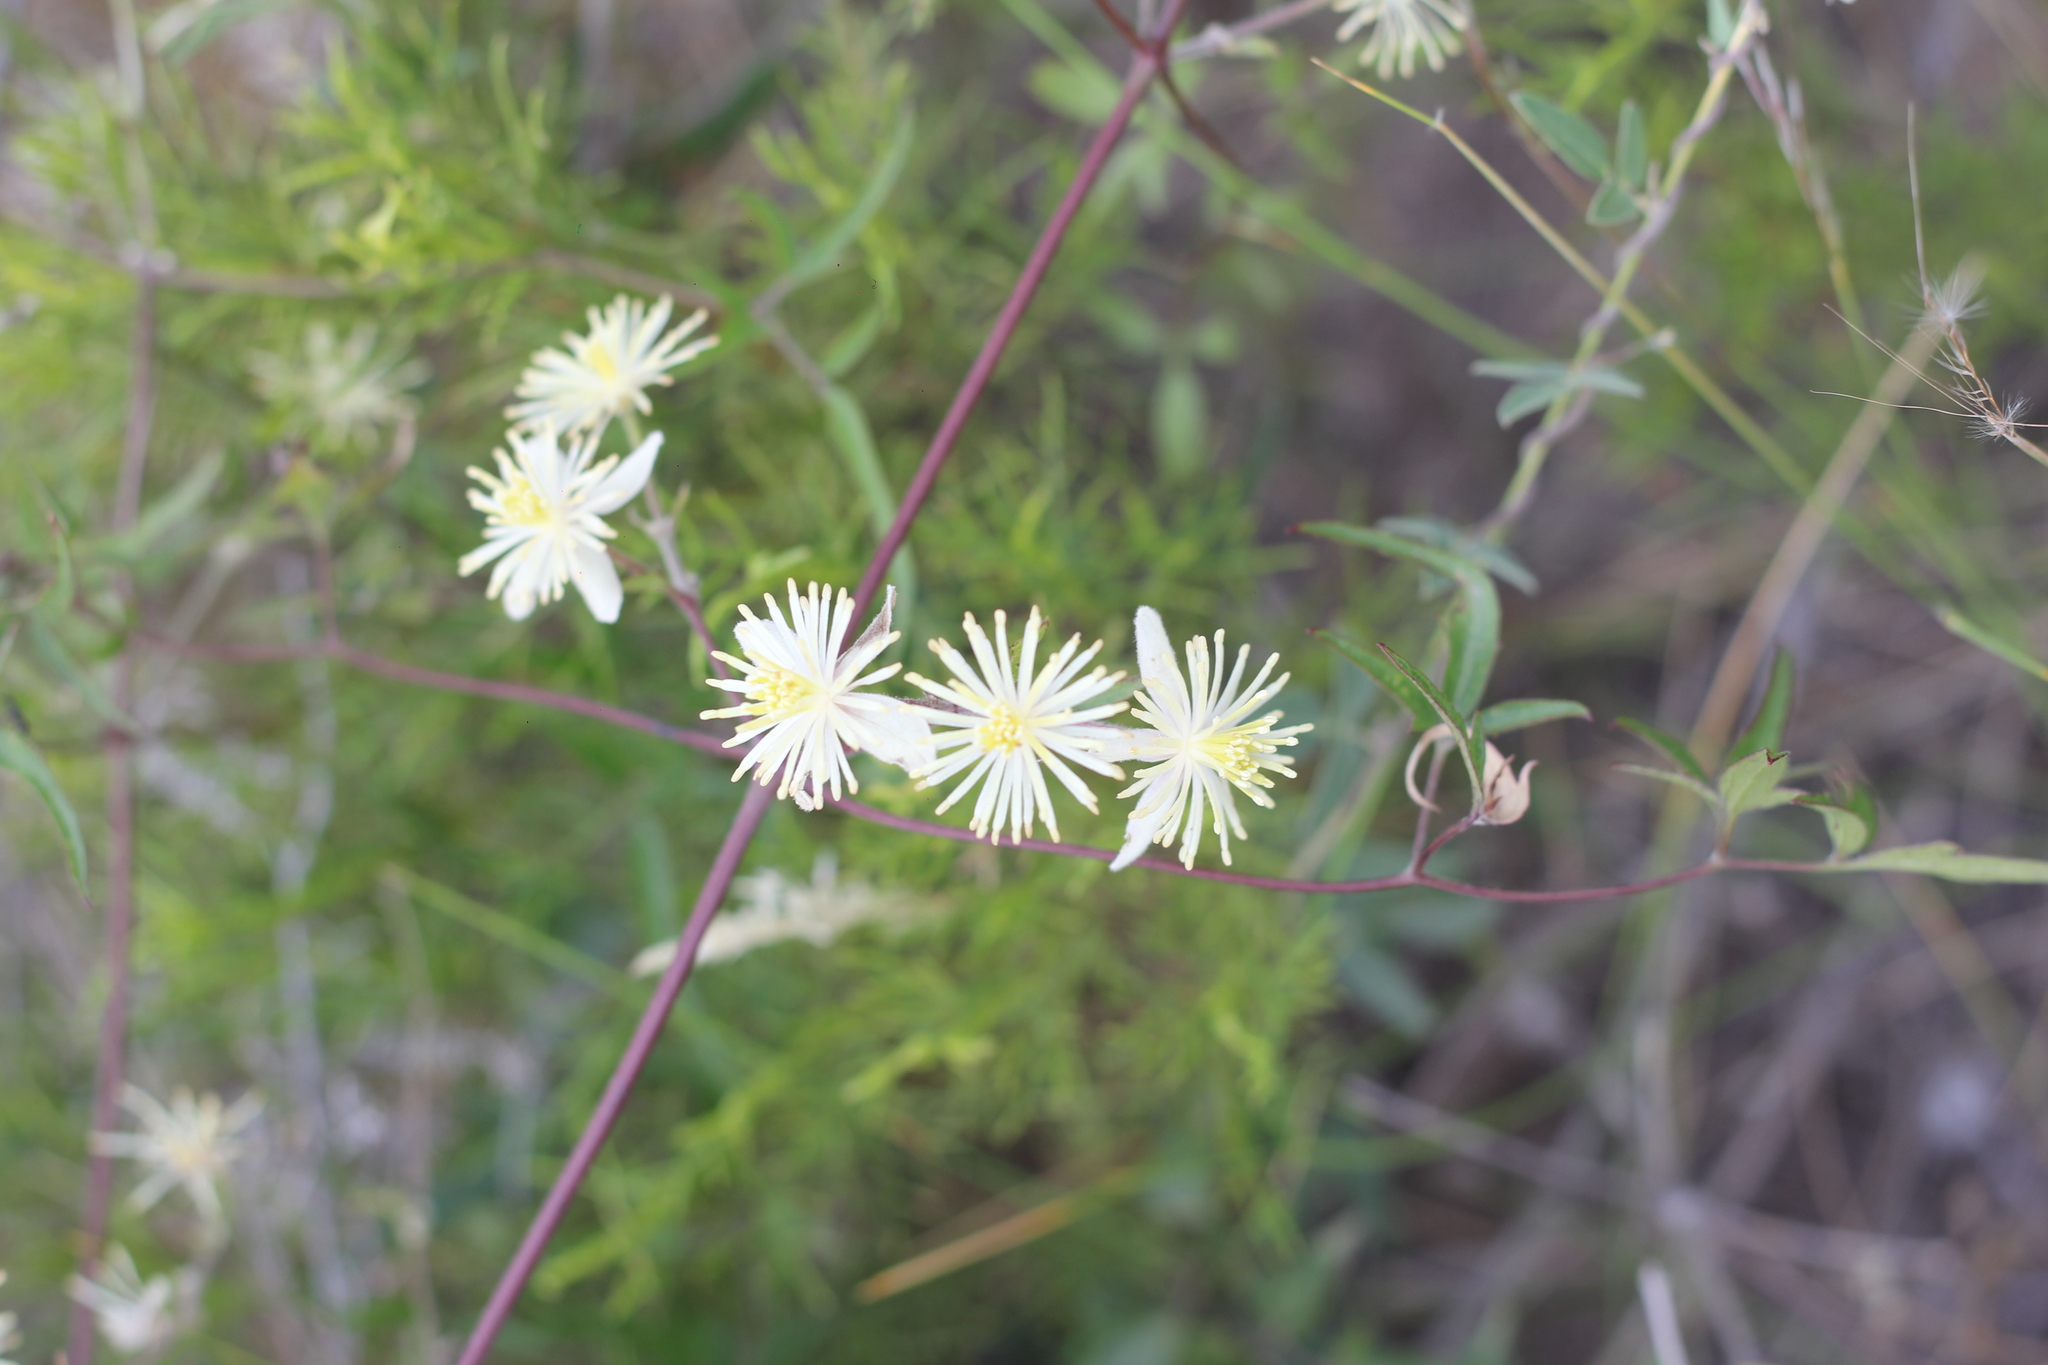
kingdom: Plantae
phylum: Tracheophyta
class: Magnoliopsida
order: Ranunculales
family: Ranunculaceae
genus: Clematis
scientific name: Clematis montevidensis
